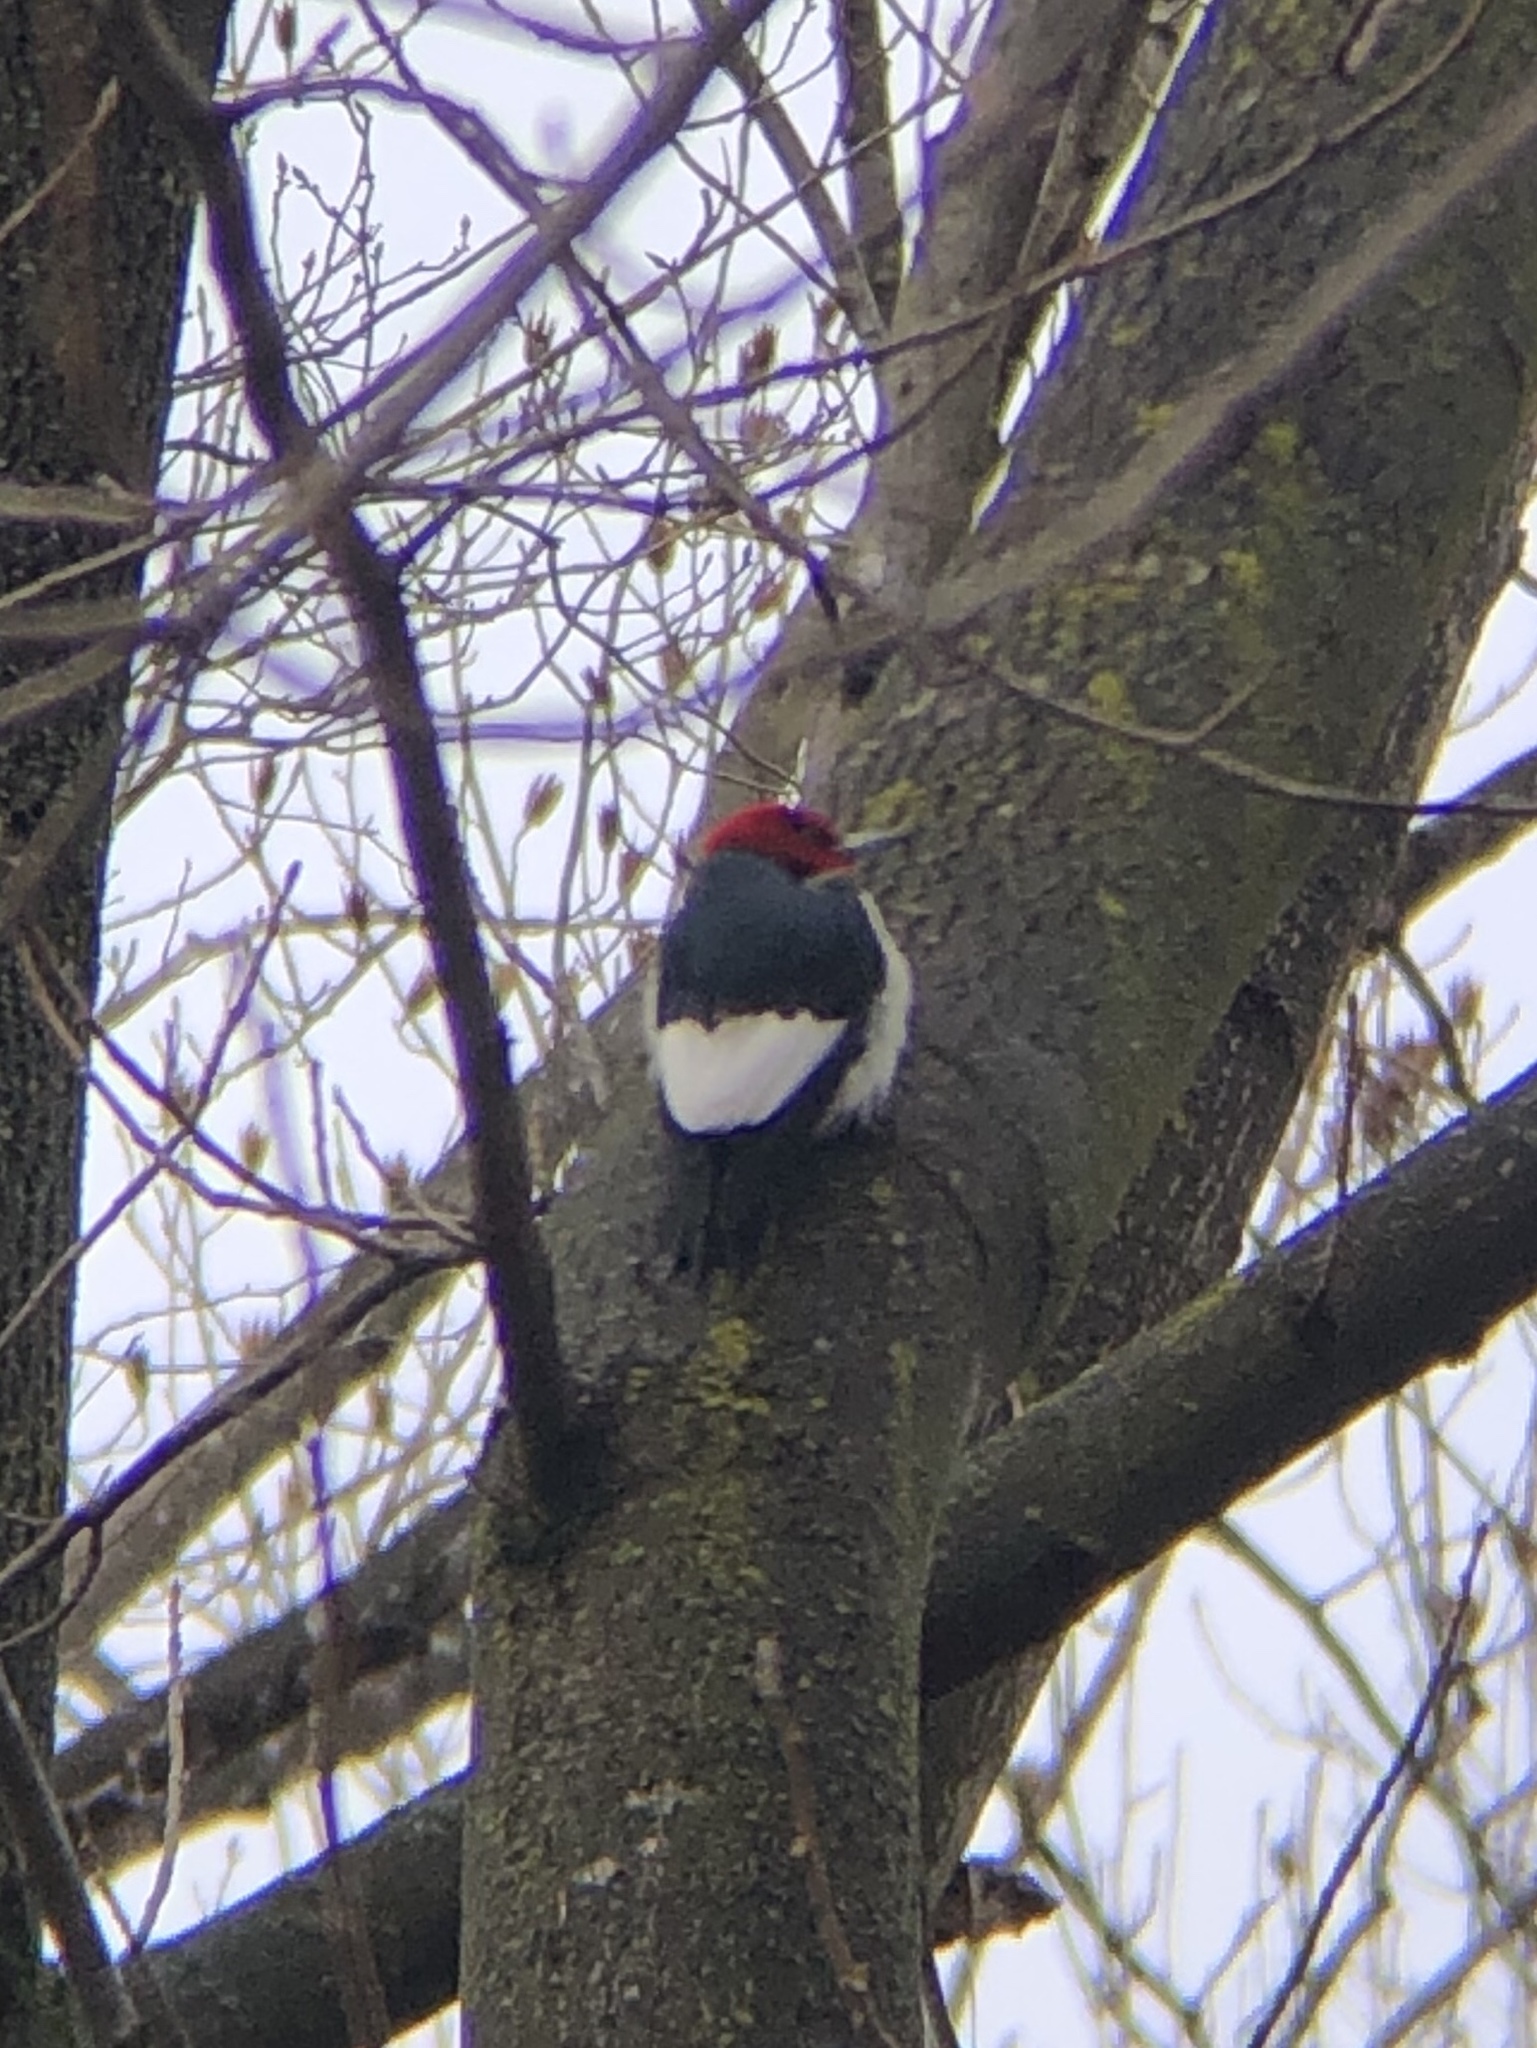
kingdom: Animalia
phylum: Chordata
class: Aves
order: Piciformes
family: Picidae
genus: Melanerpes
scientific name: Melanerpes erythrocephalus
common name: Red-headed woodpecker
